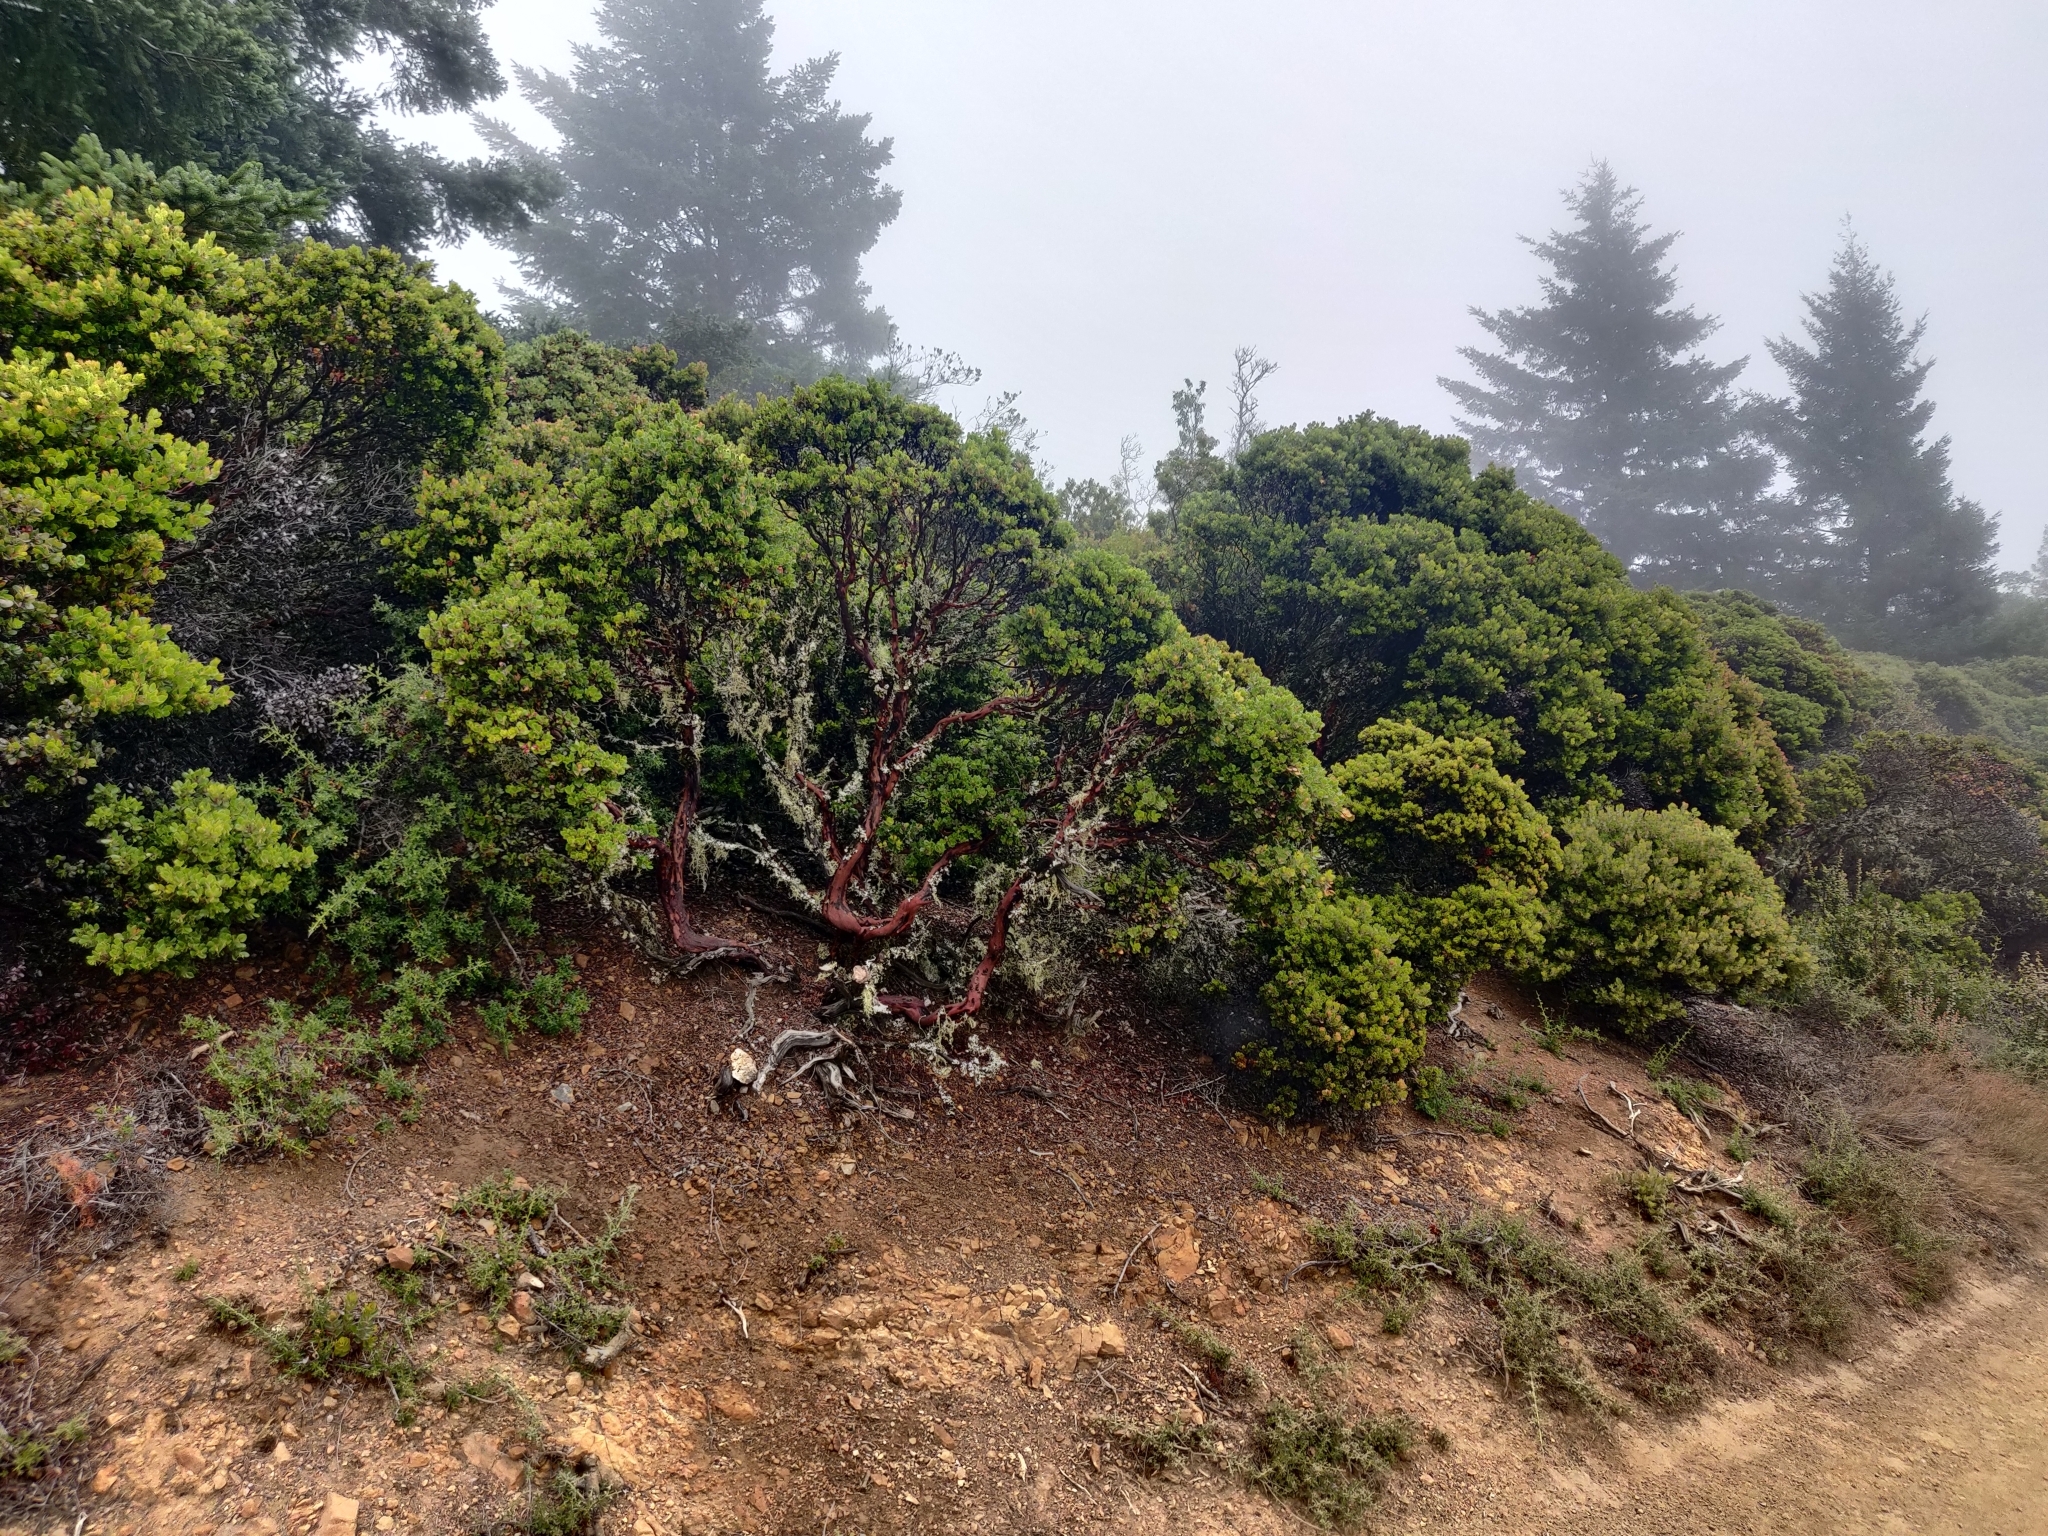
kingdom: Plantae
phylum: Tracheophyta
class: Magnoliopsida
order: Ericales
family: Ericaceae
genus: Arctostaphylos
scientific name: Arctostaphylos nummularia
